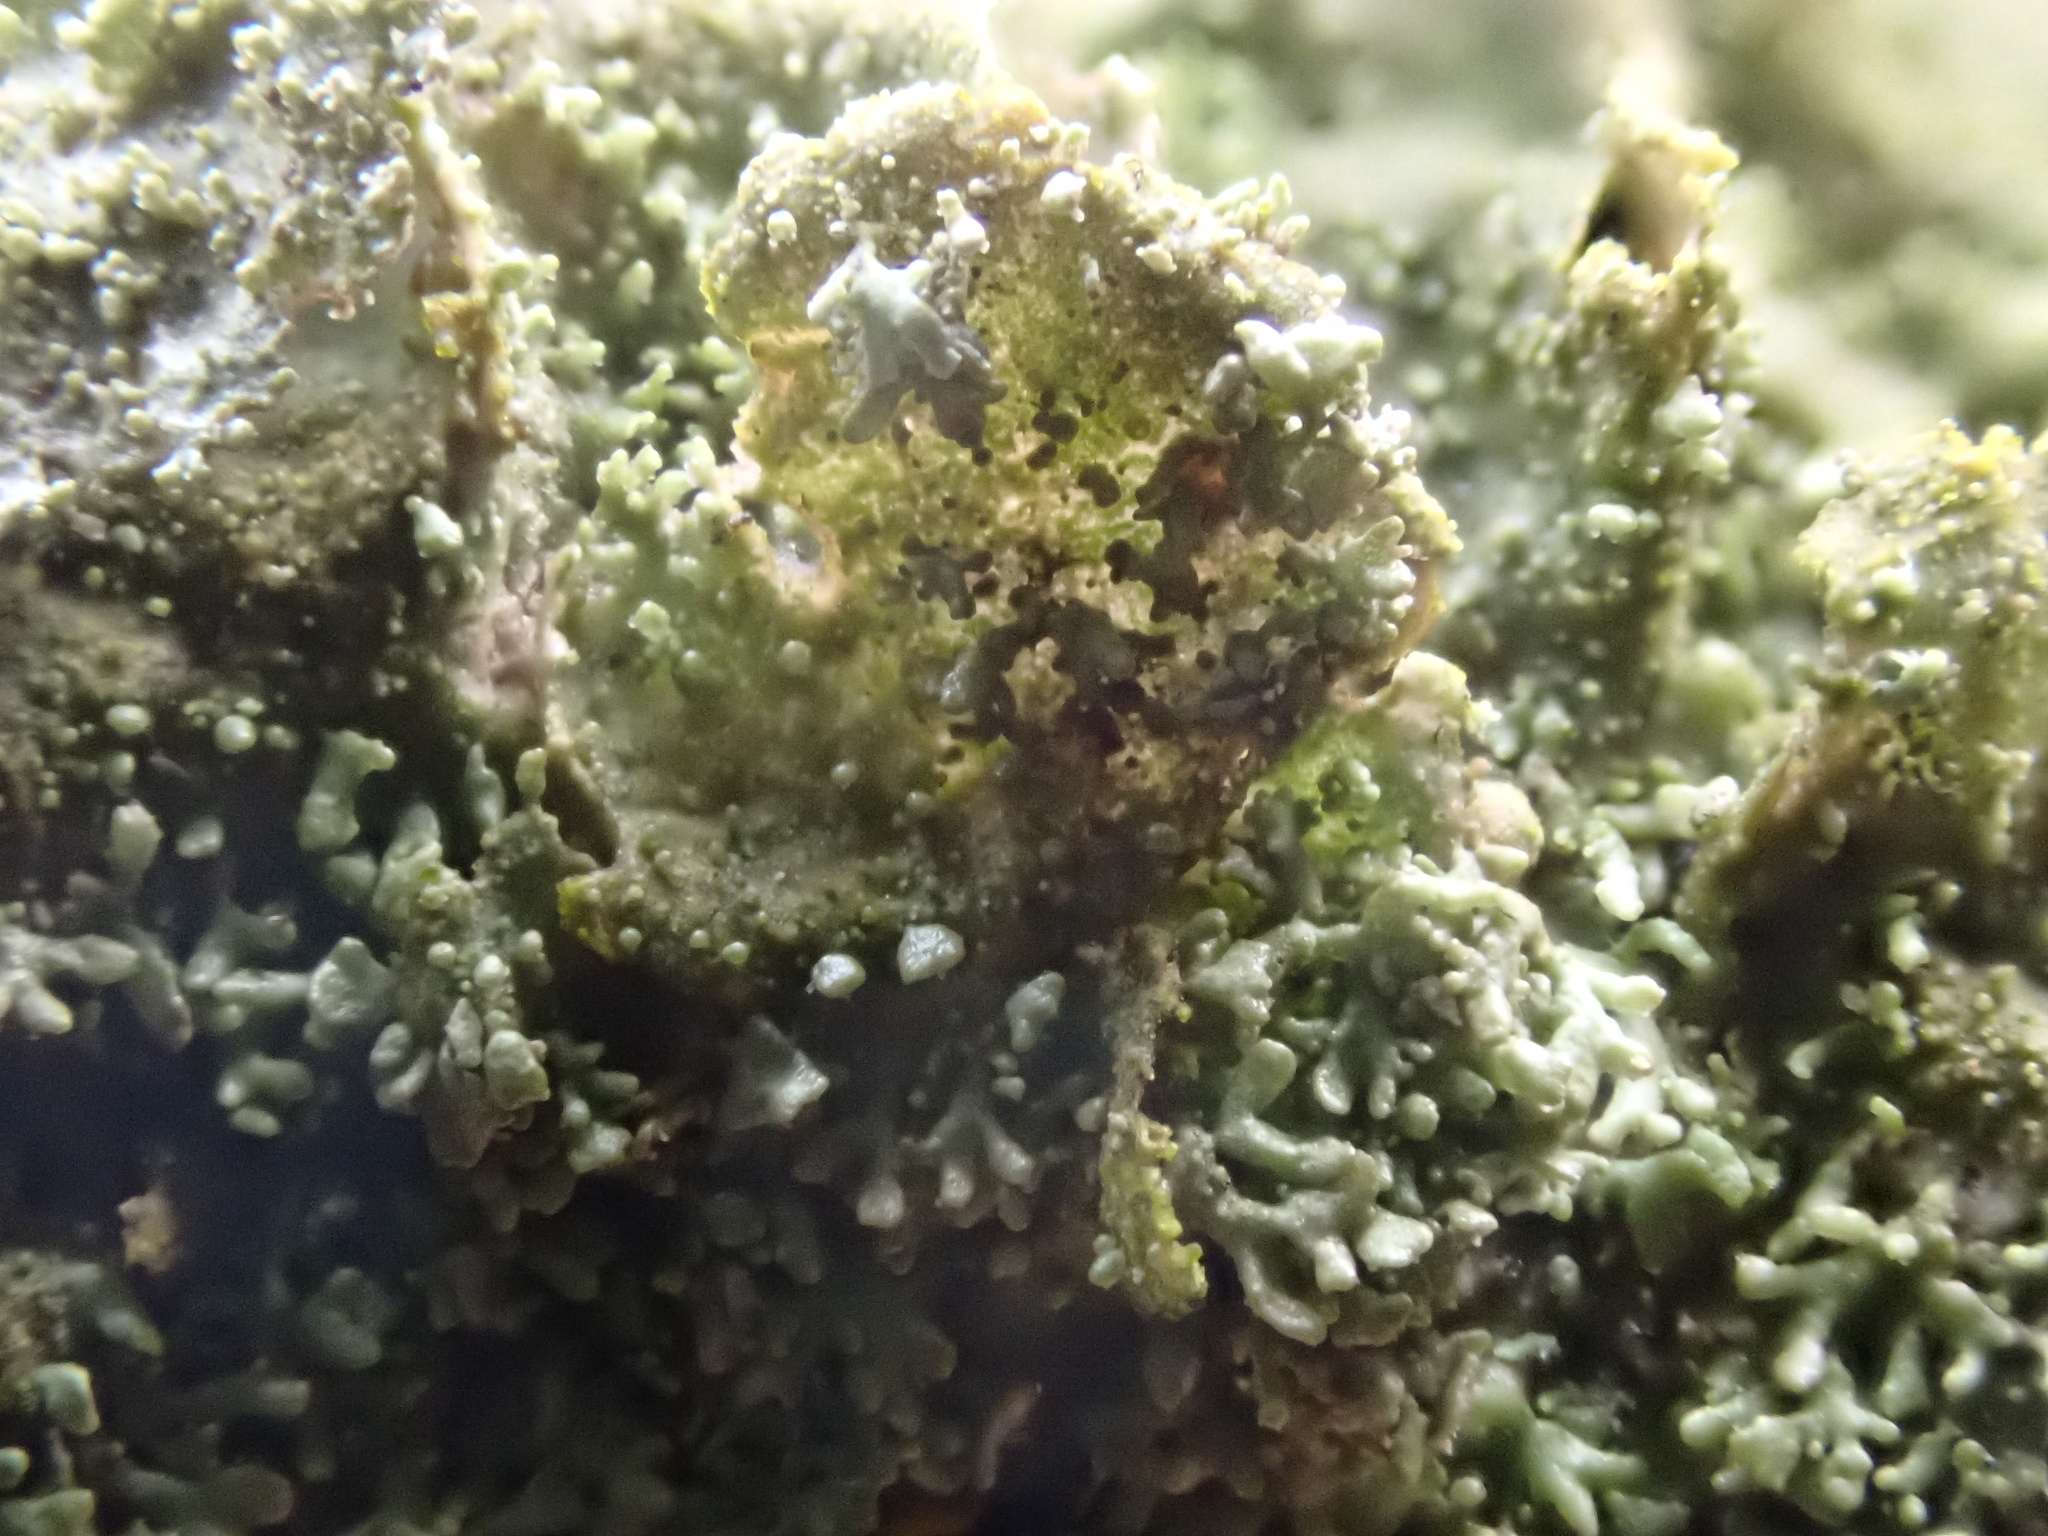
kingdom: Fungi
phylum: Ascomycota
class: Lecanoromycetes
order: Lecanorales
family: Parmeliaceae
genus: Melanohalea
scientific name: Melanohalea exasperatula
